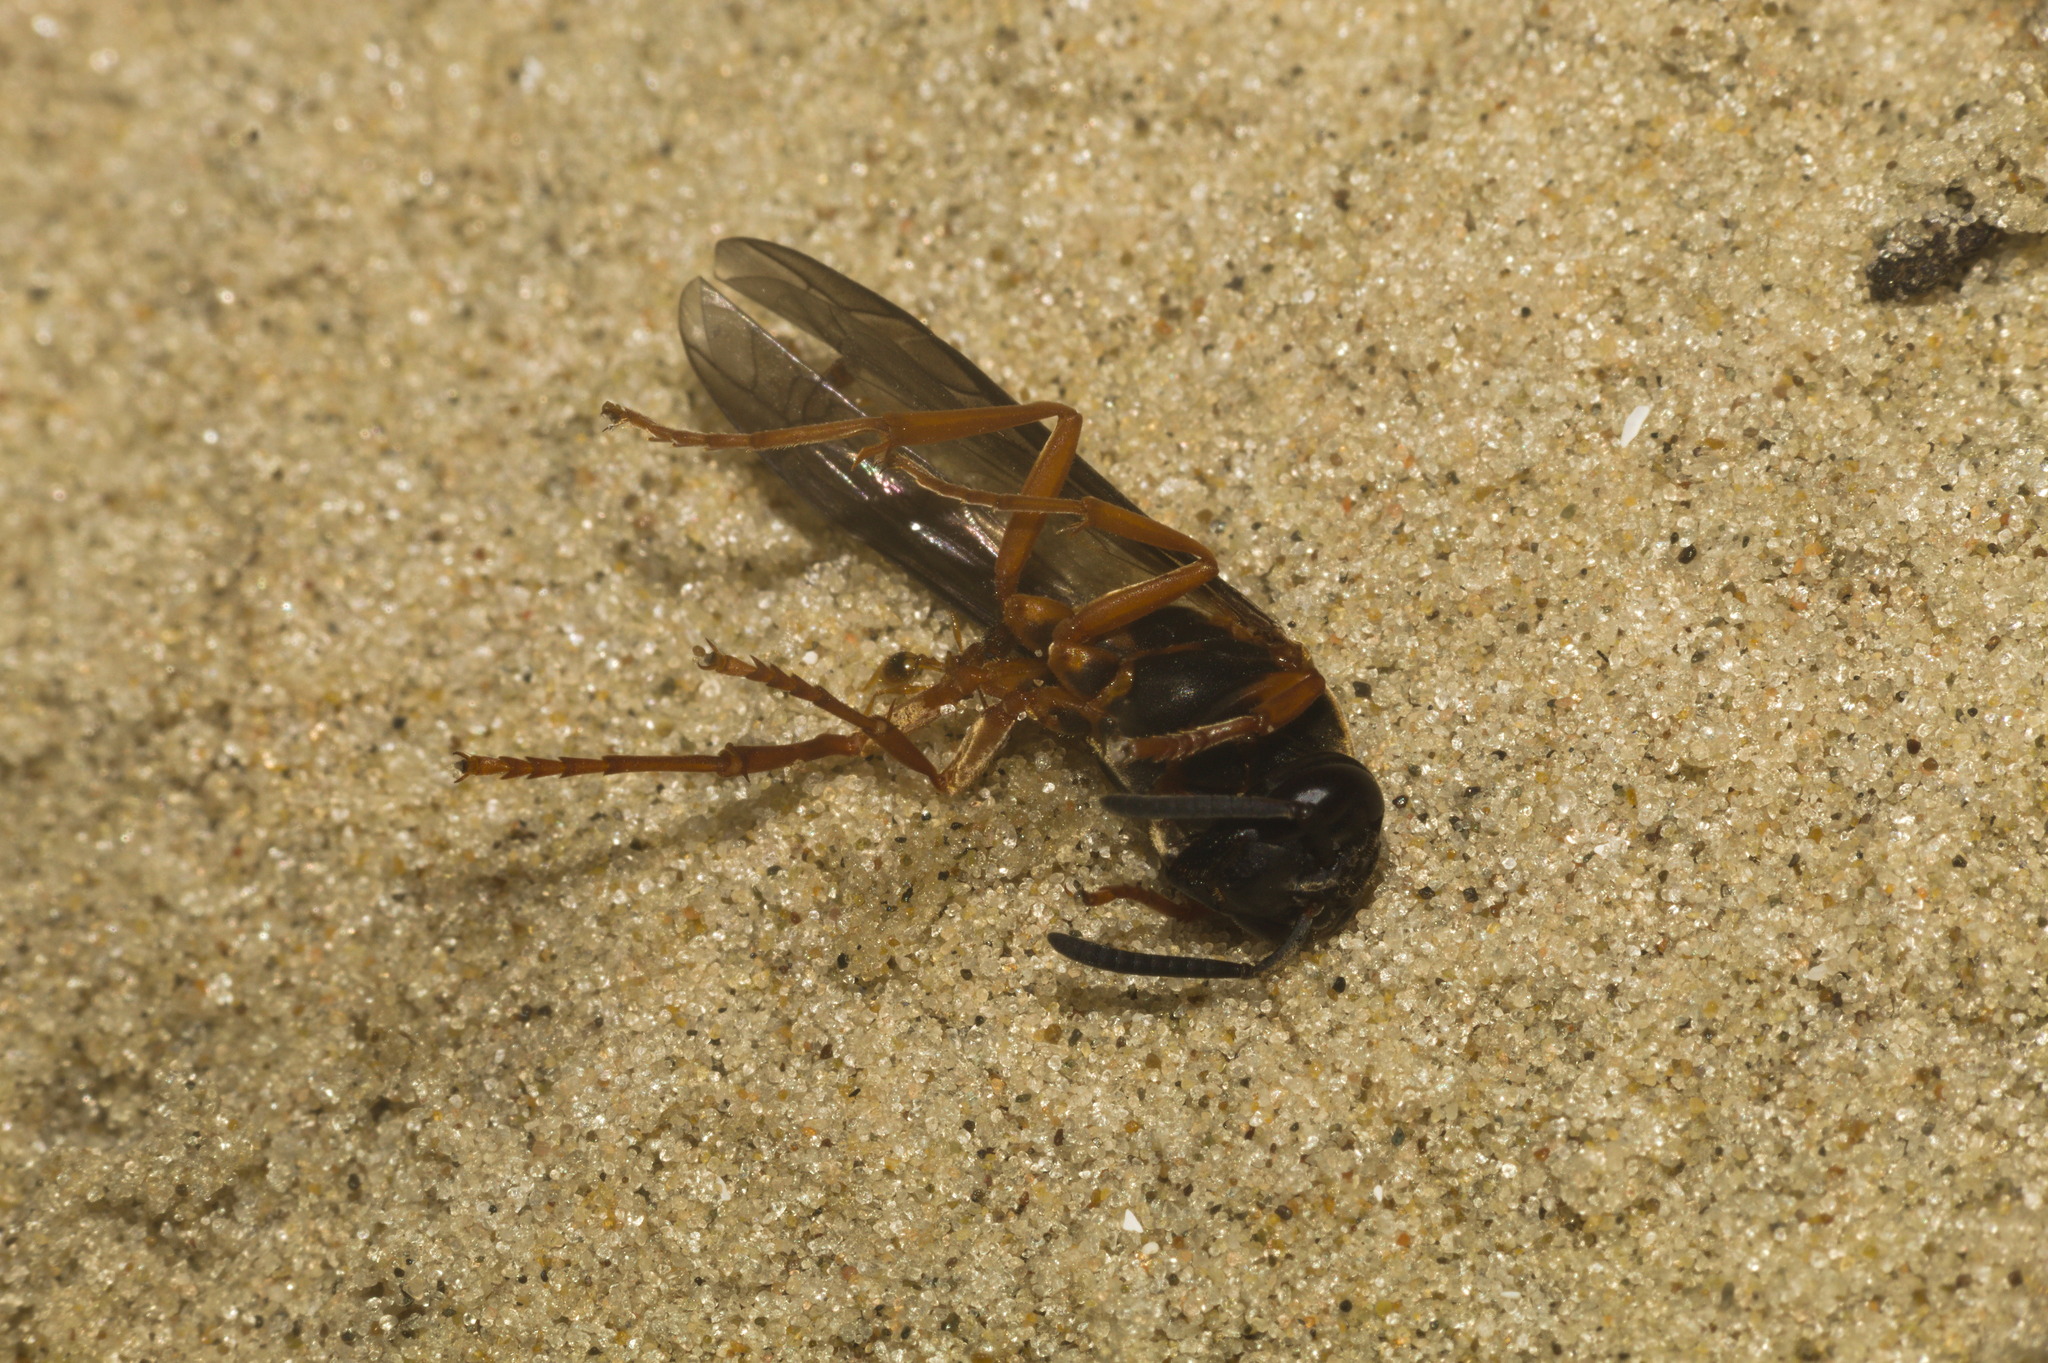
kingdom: Animalia
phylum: Arthropoda
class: Insecta
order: Hymenoptera
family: Eumenidae
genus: Polybia
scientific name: Polybia sericea
